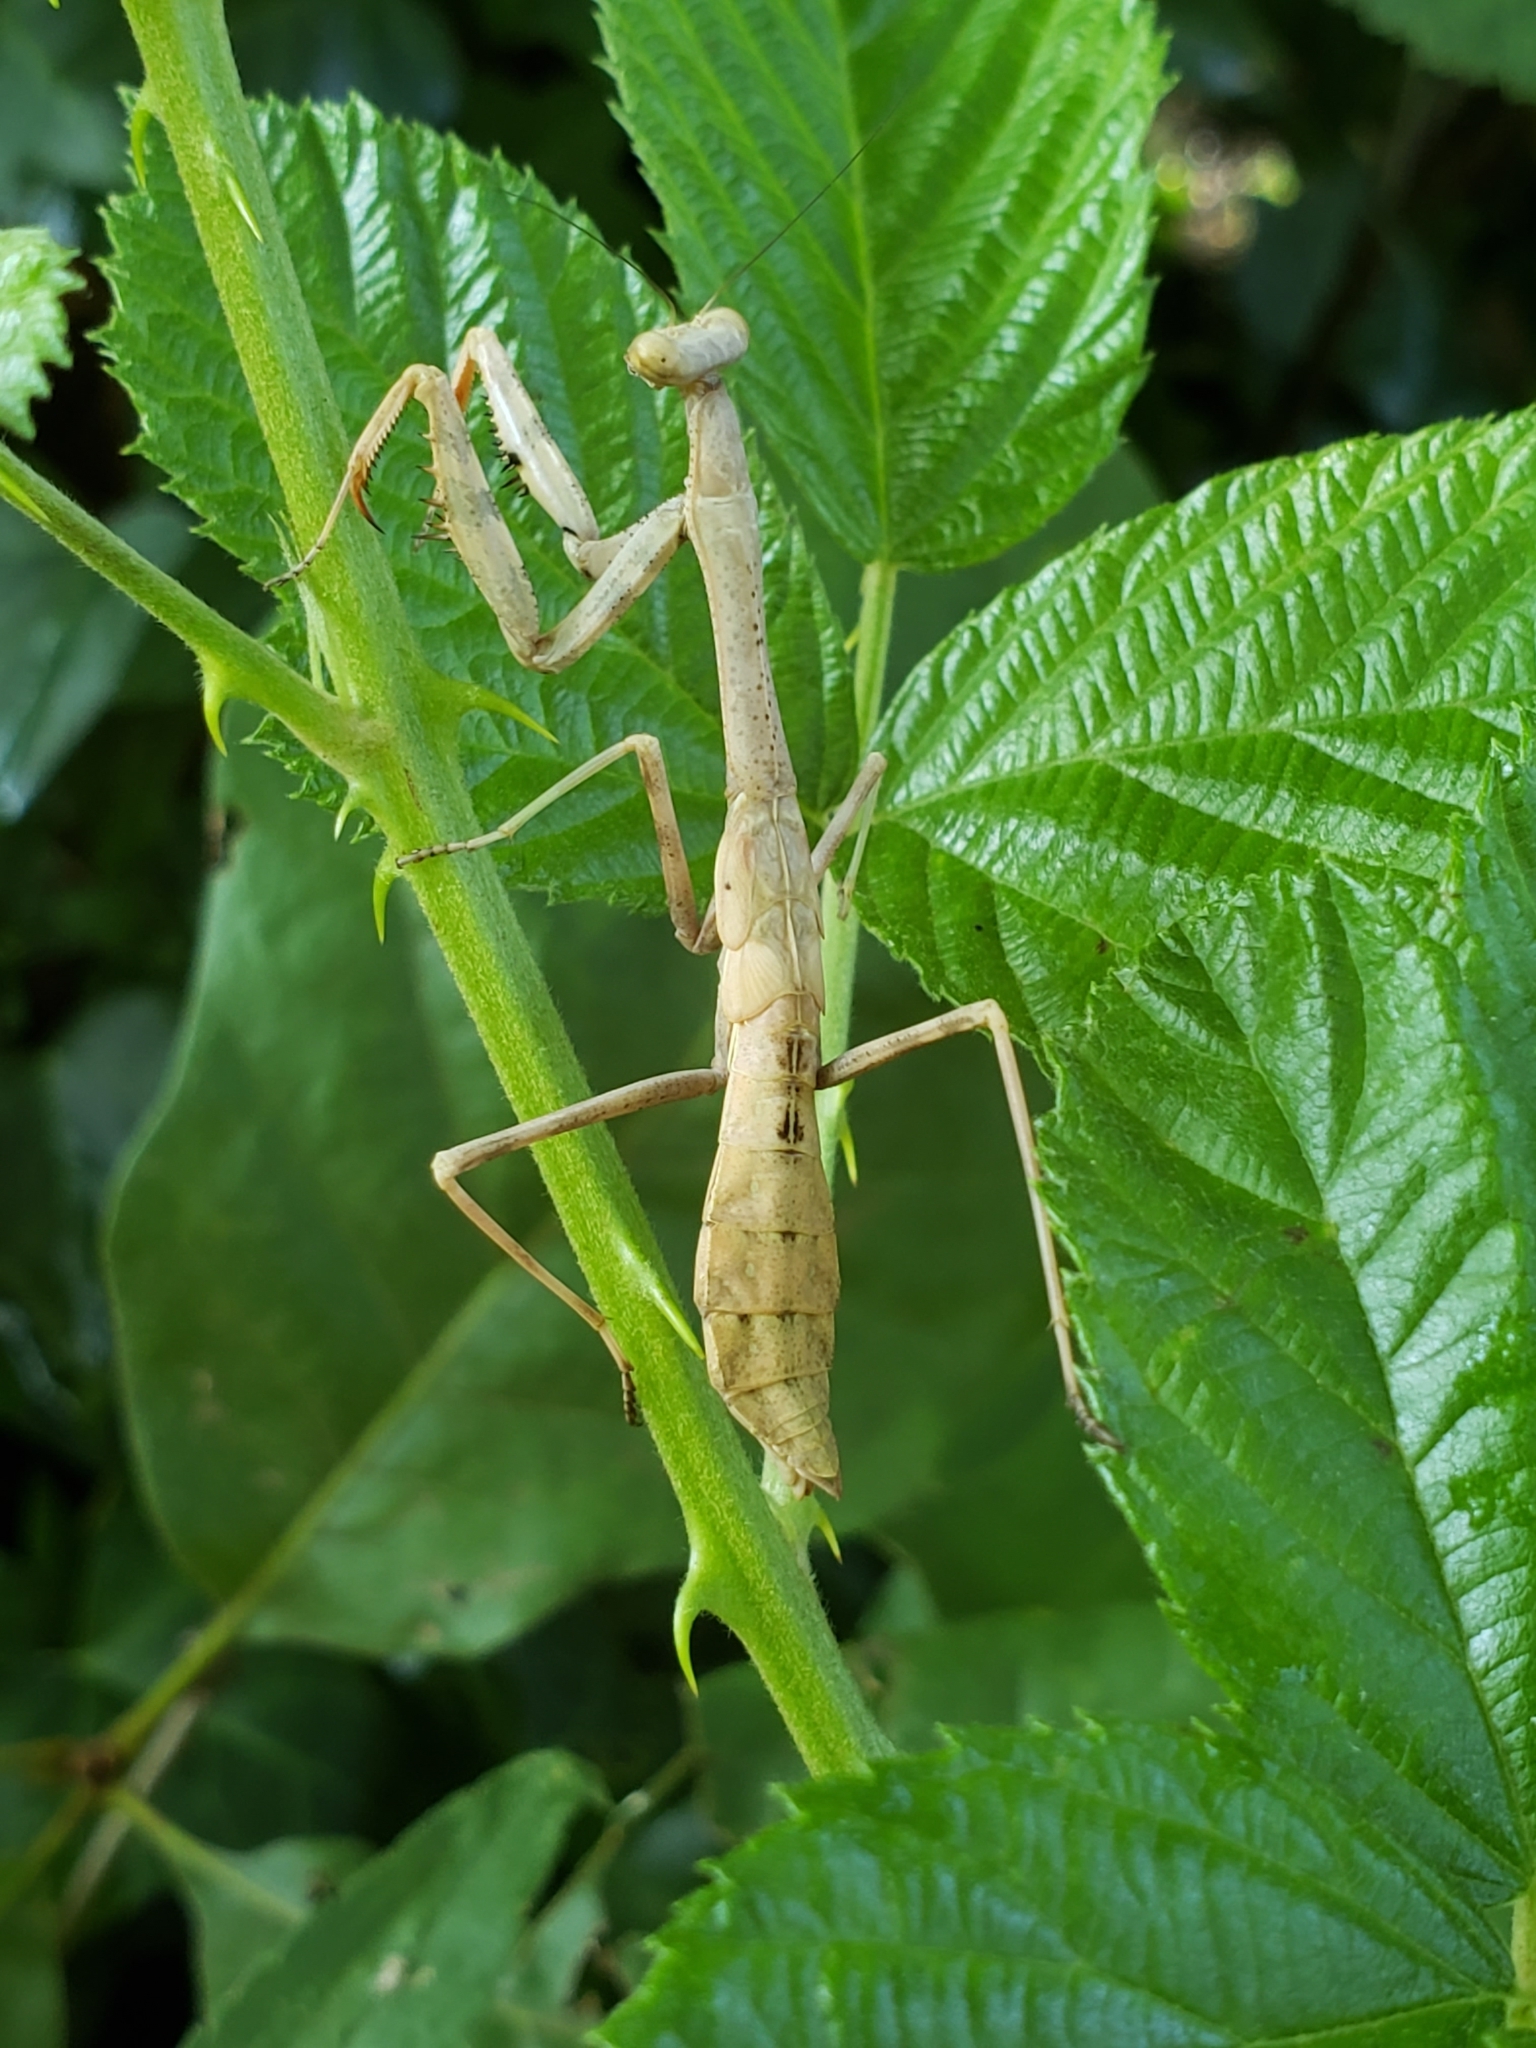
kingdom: Animalia
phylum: Arthropoda
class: Insecta
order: Mantodea
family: Mantidae
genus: Stagmomantis
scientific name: Stagmomantis carolina
